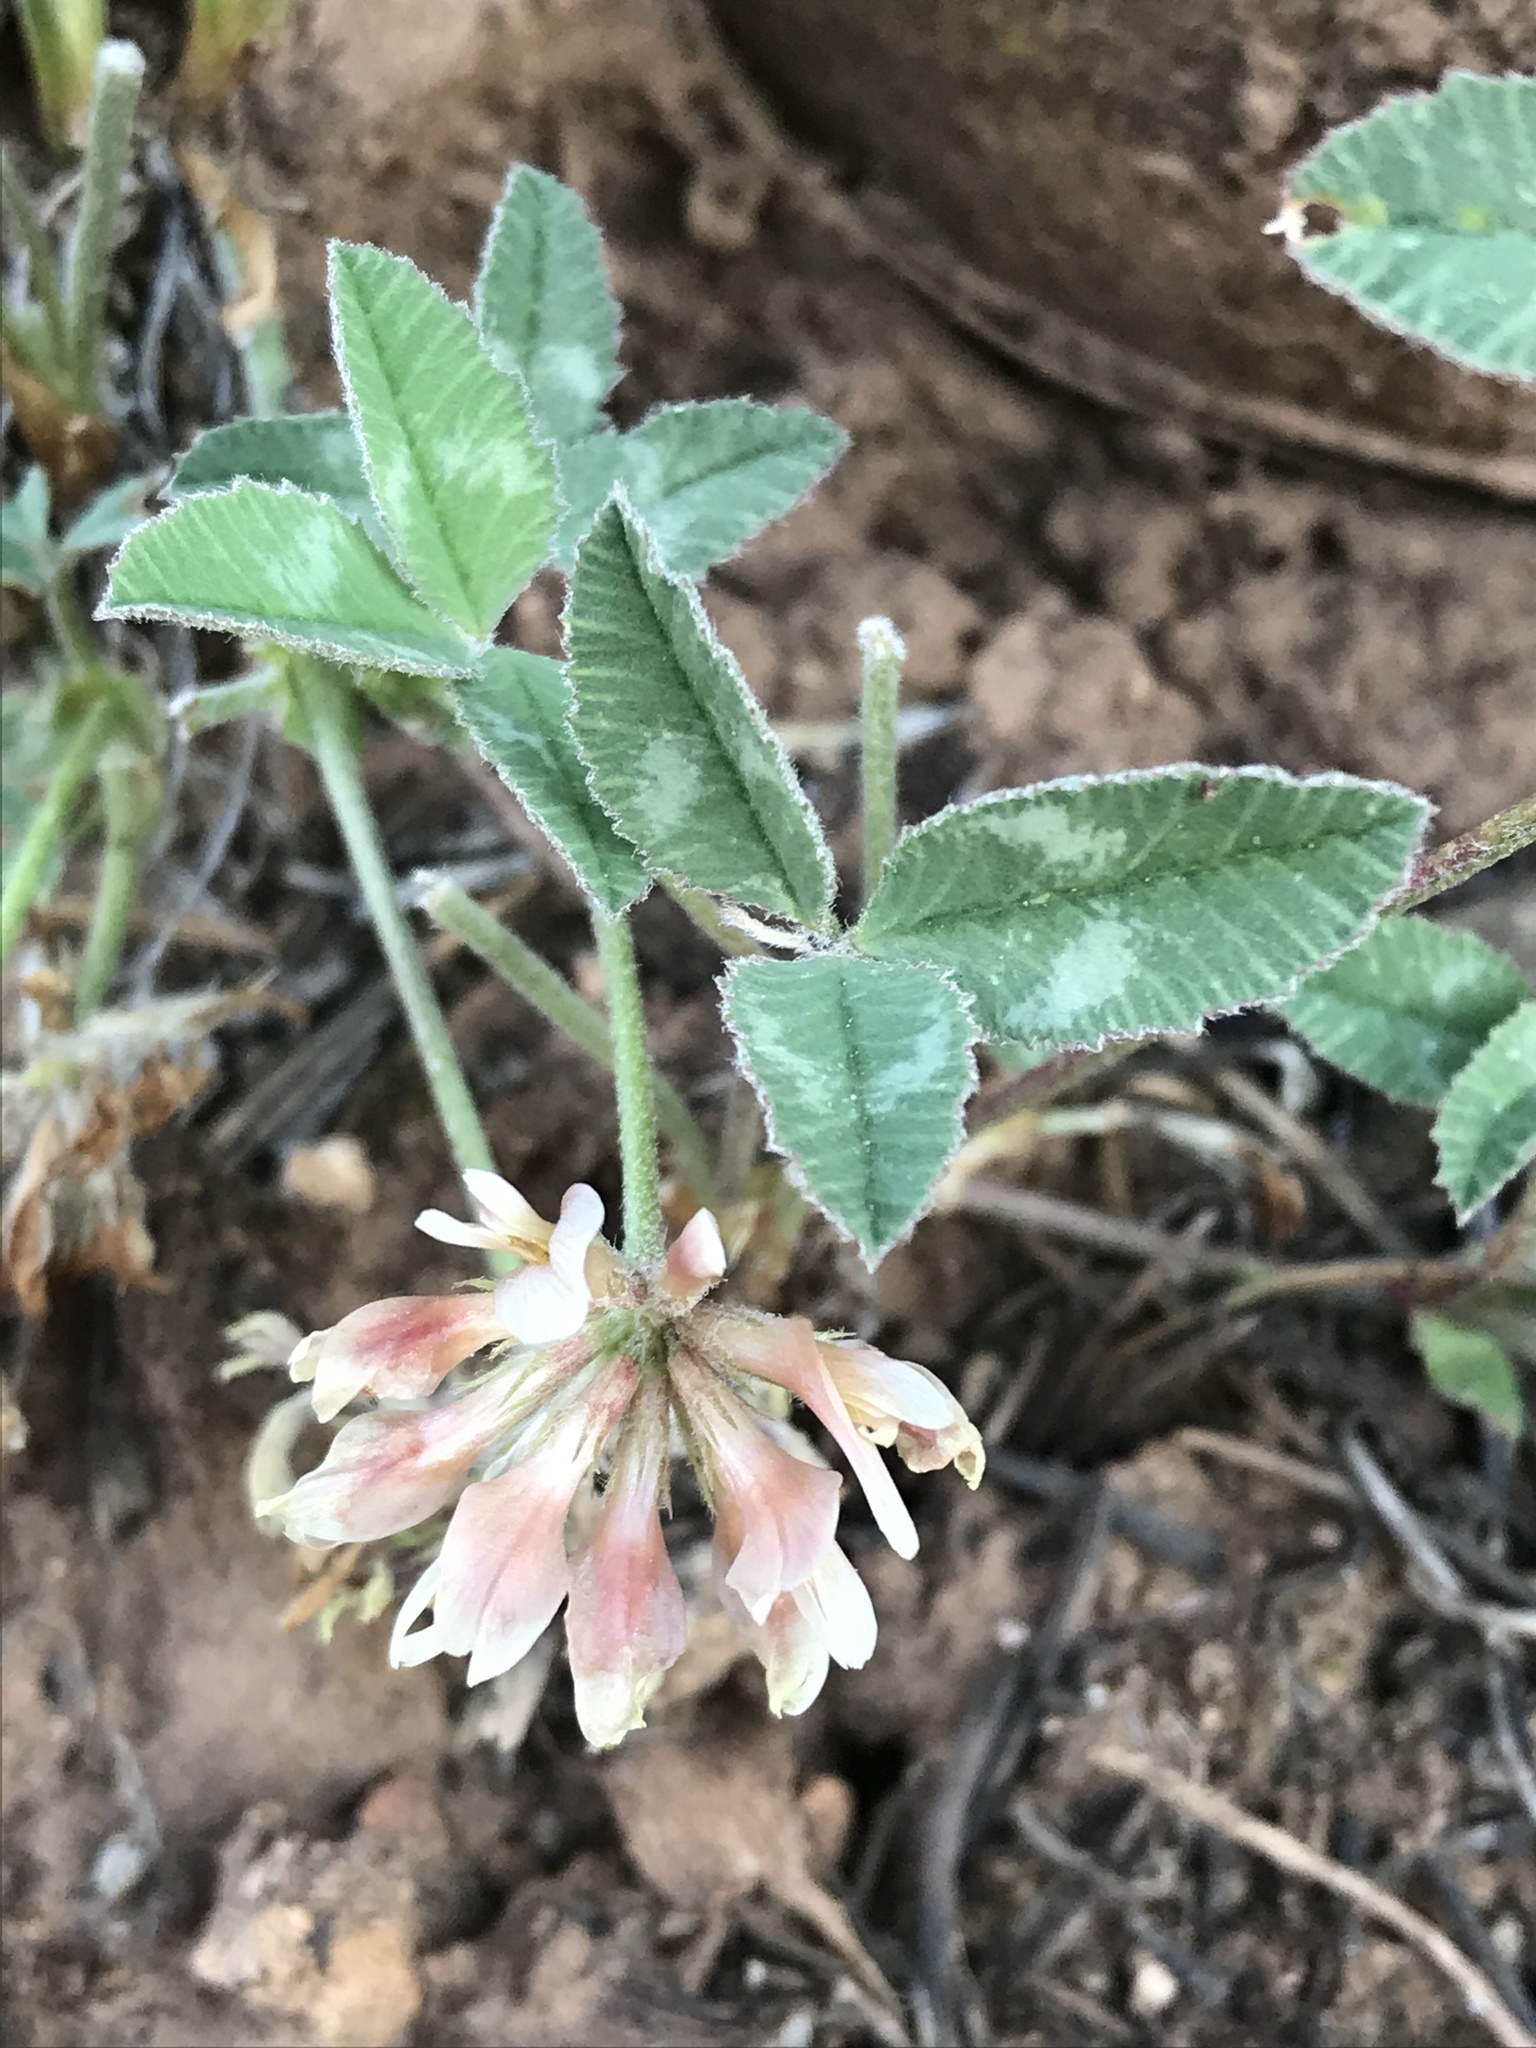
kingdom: Plantae
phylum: Tracheophyta
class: Magnoliopsida
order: Fabales
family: Fabaceae
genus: Trifolium
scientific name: Trifolium gymnocarpon
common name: Tufted clover
